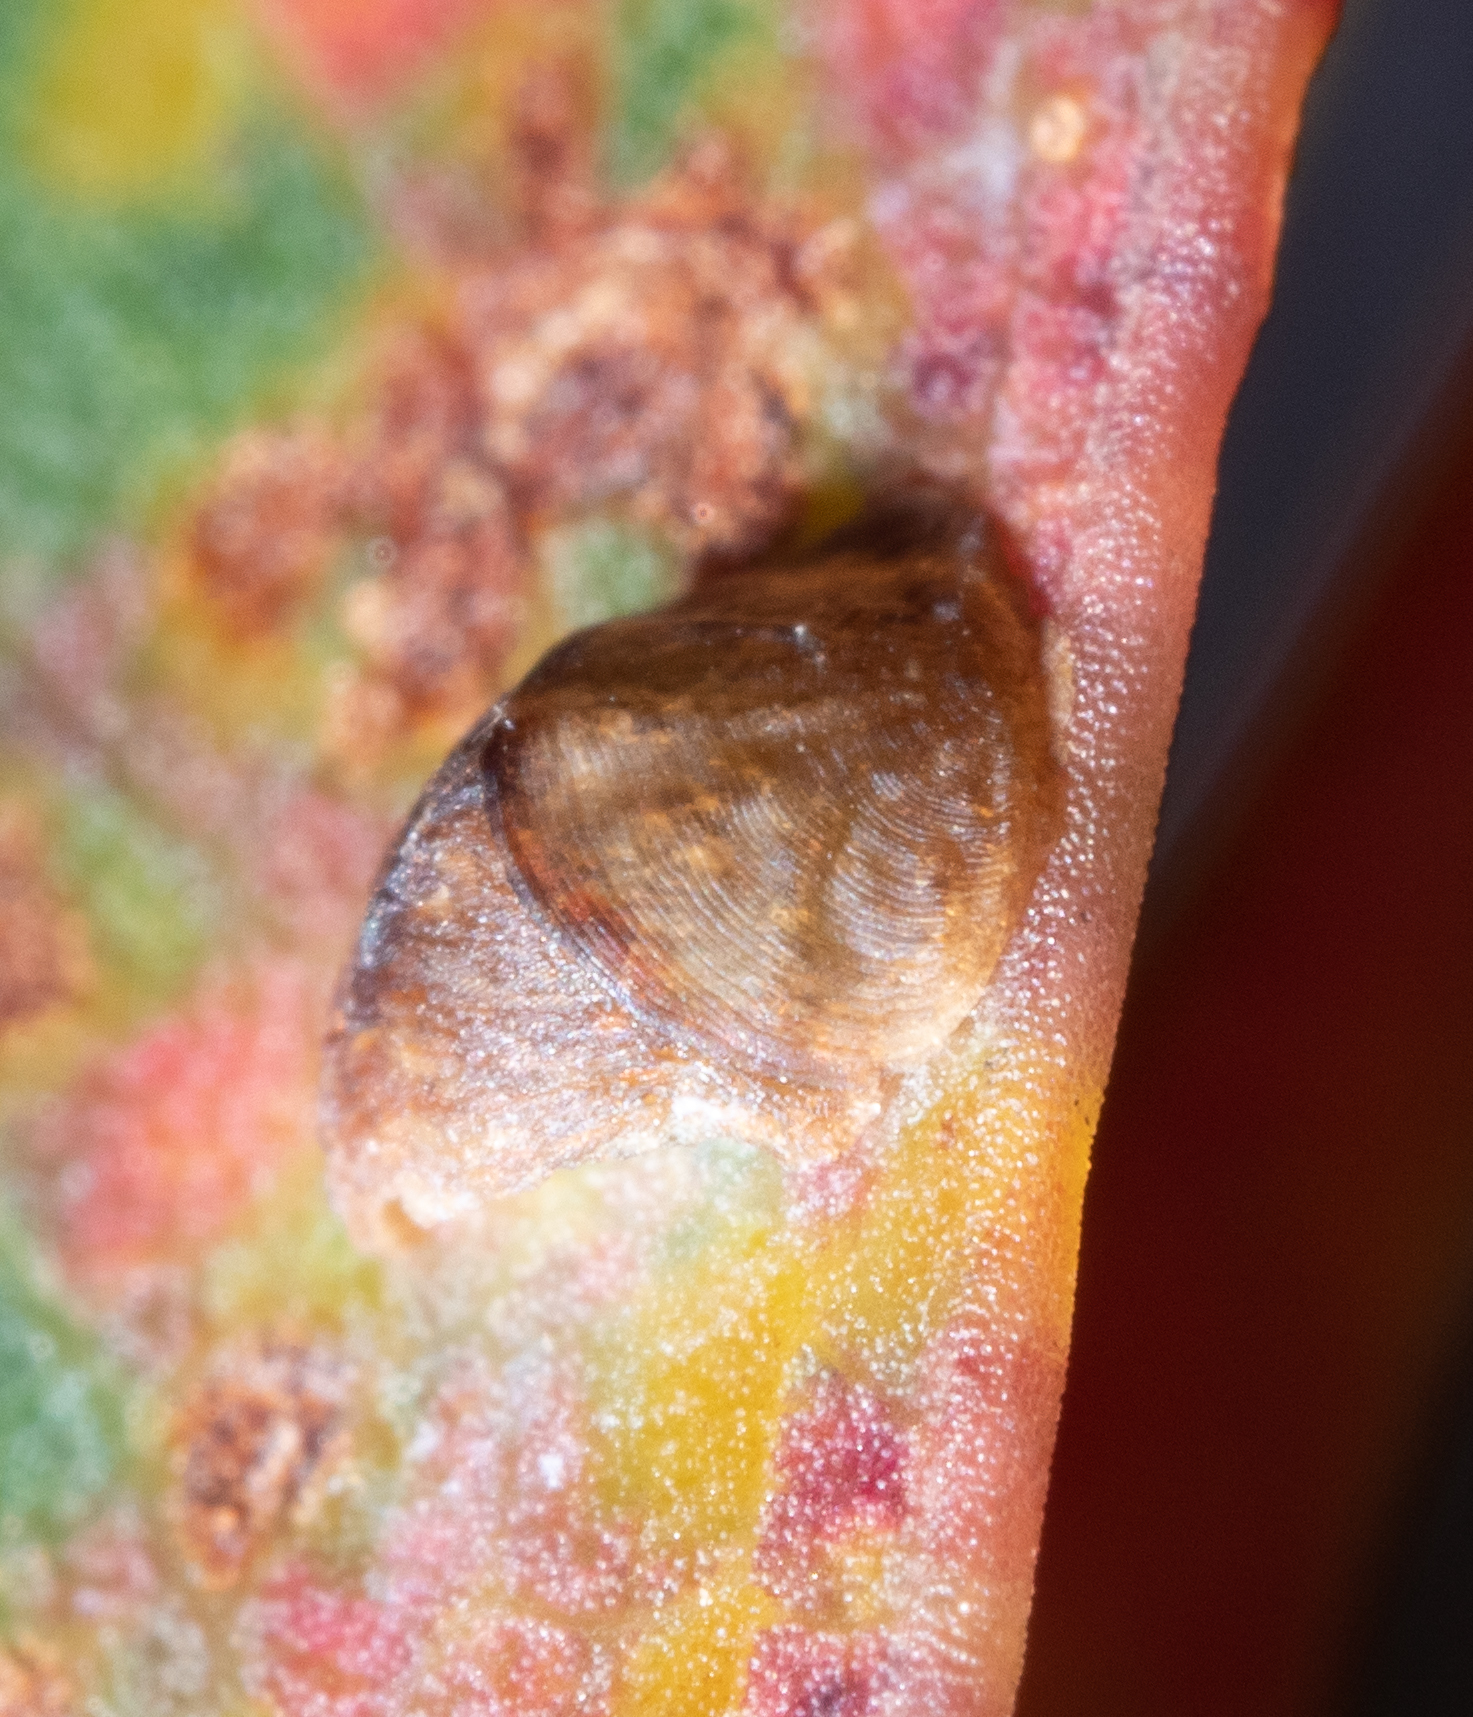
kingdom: Animalia
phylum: Arthropoda
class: Insecta
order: Hemiptera
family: Aphalaridae
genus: Cardiaspina
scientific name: Cardiaspina albicollaris
